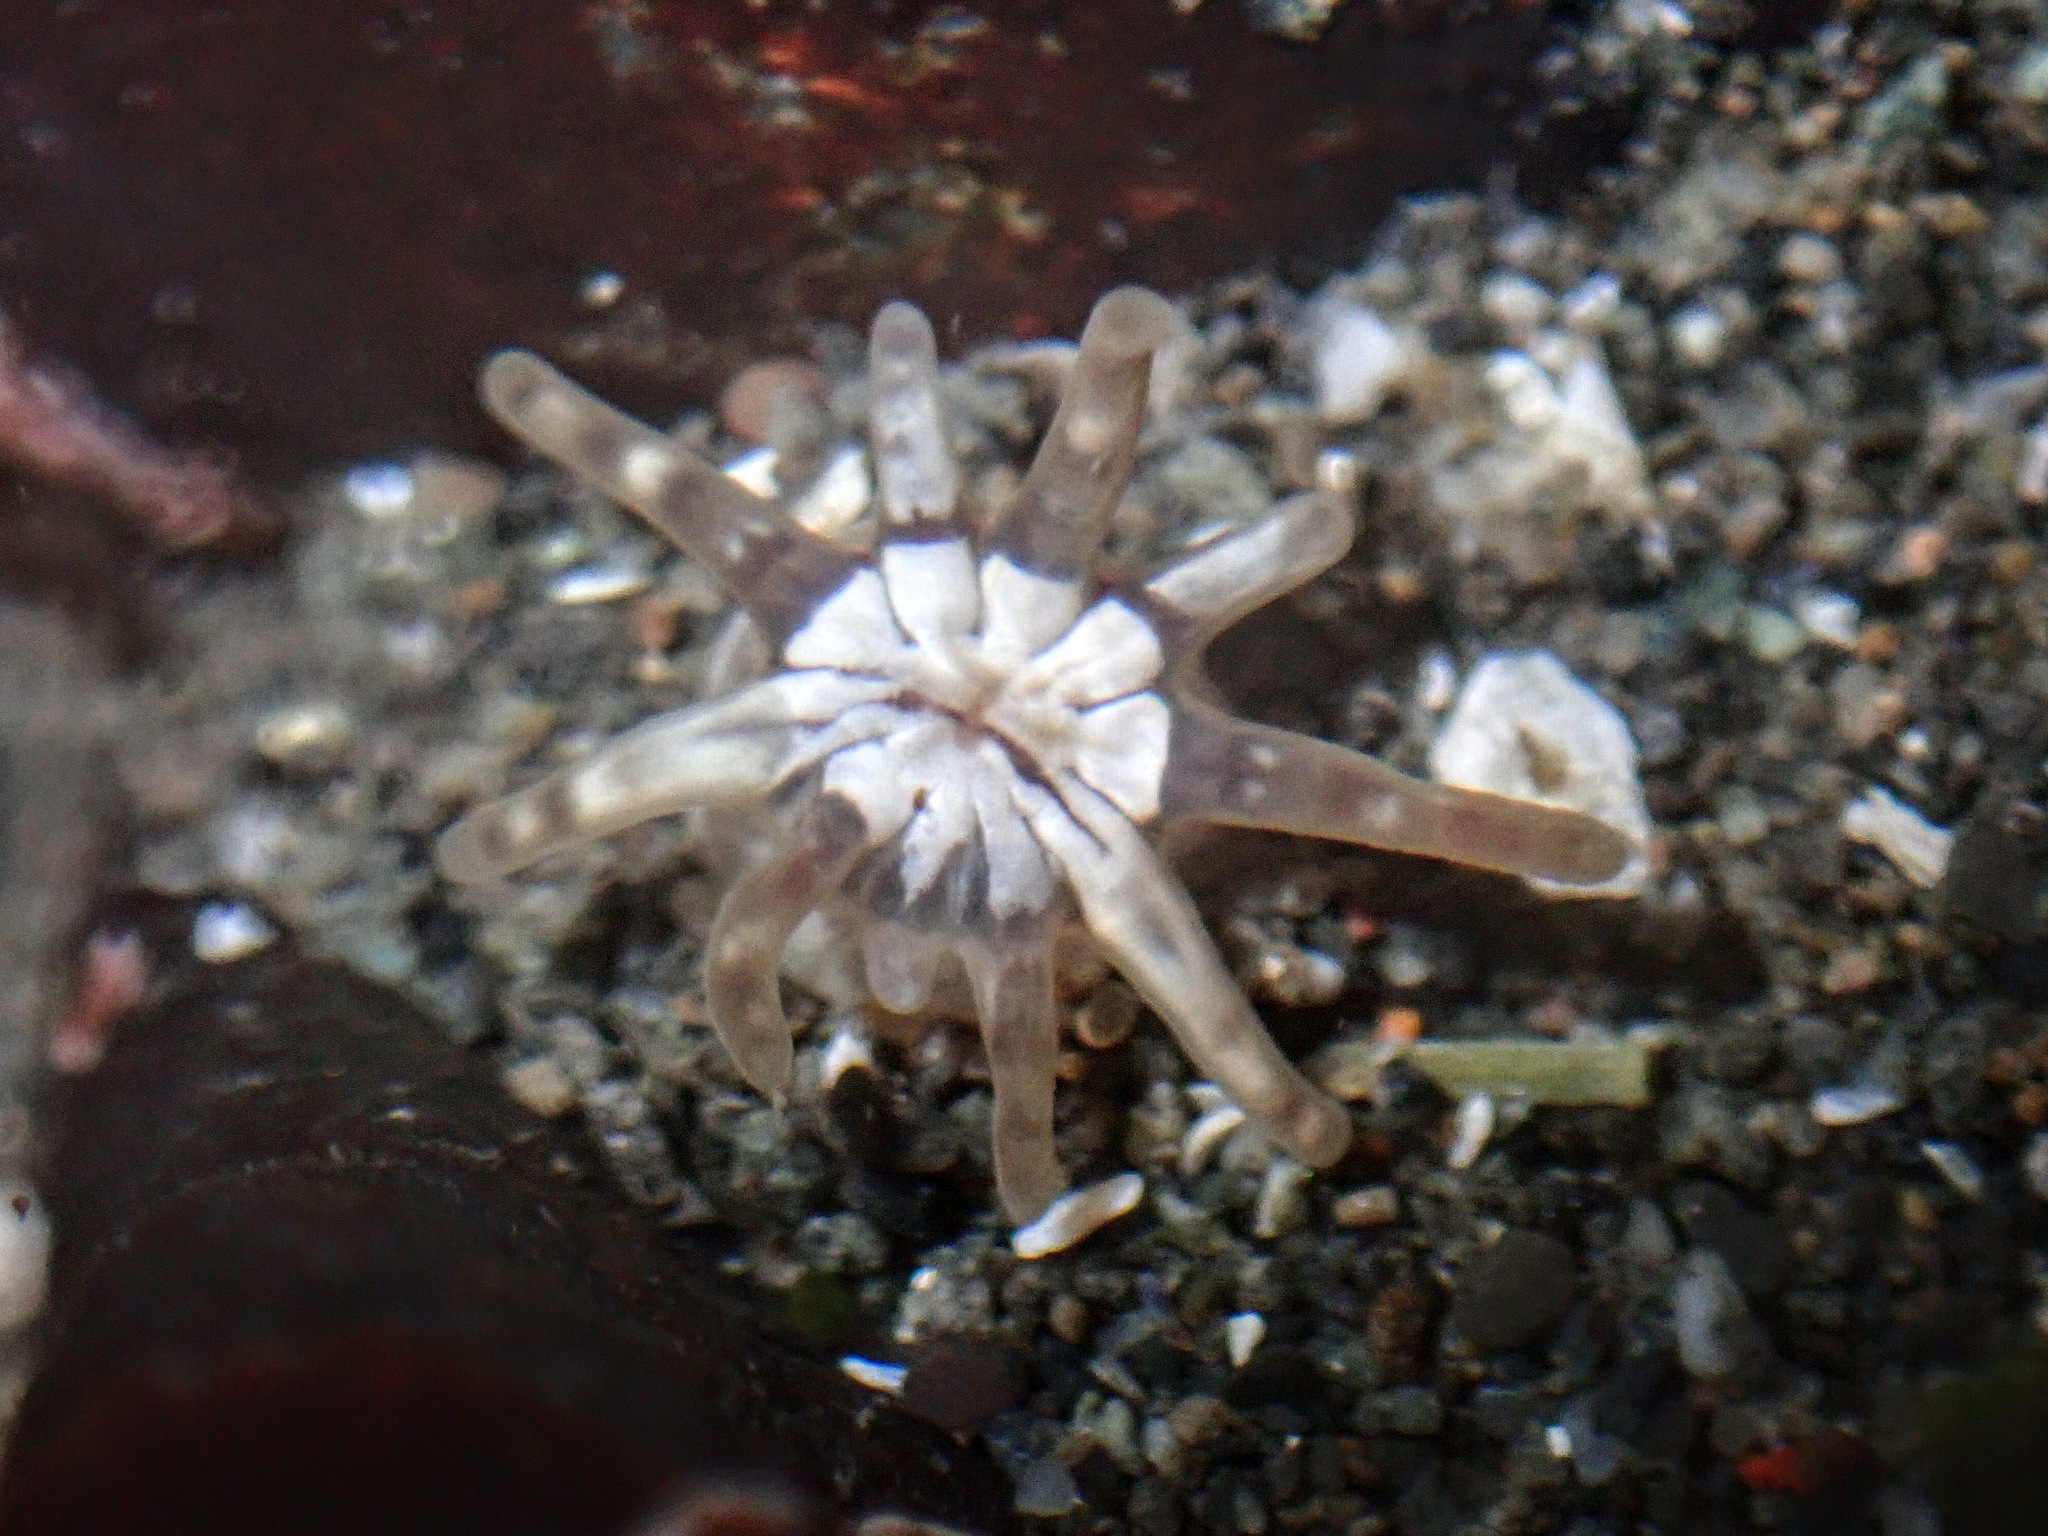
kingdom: Animalia
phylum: Cnidaria
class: Anthozoa
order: Actiniaria
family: Halcampidae
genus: Halcampa
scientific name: Halcampa decemtentaculata
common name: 10-tentacle burrowing anemone
